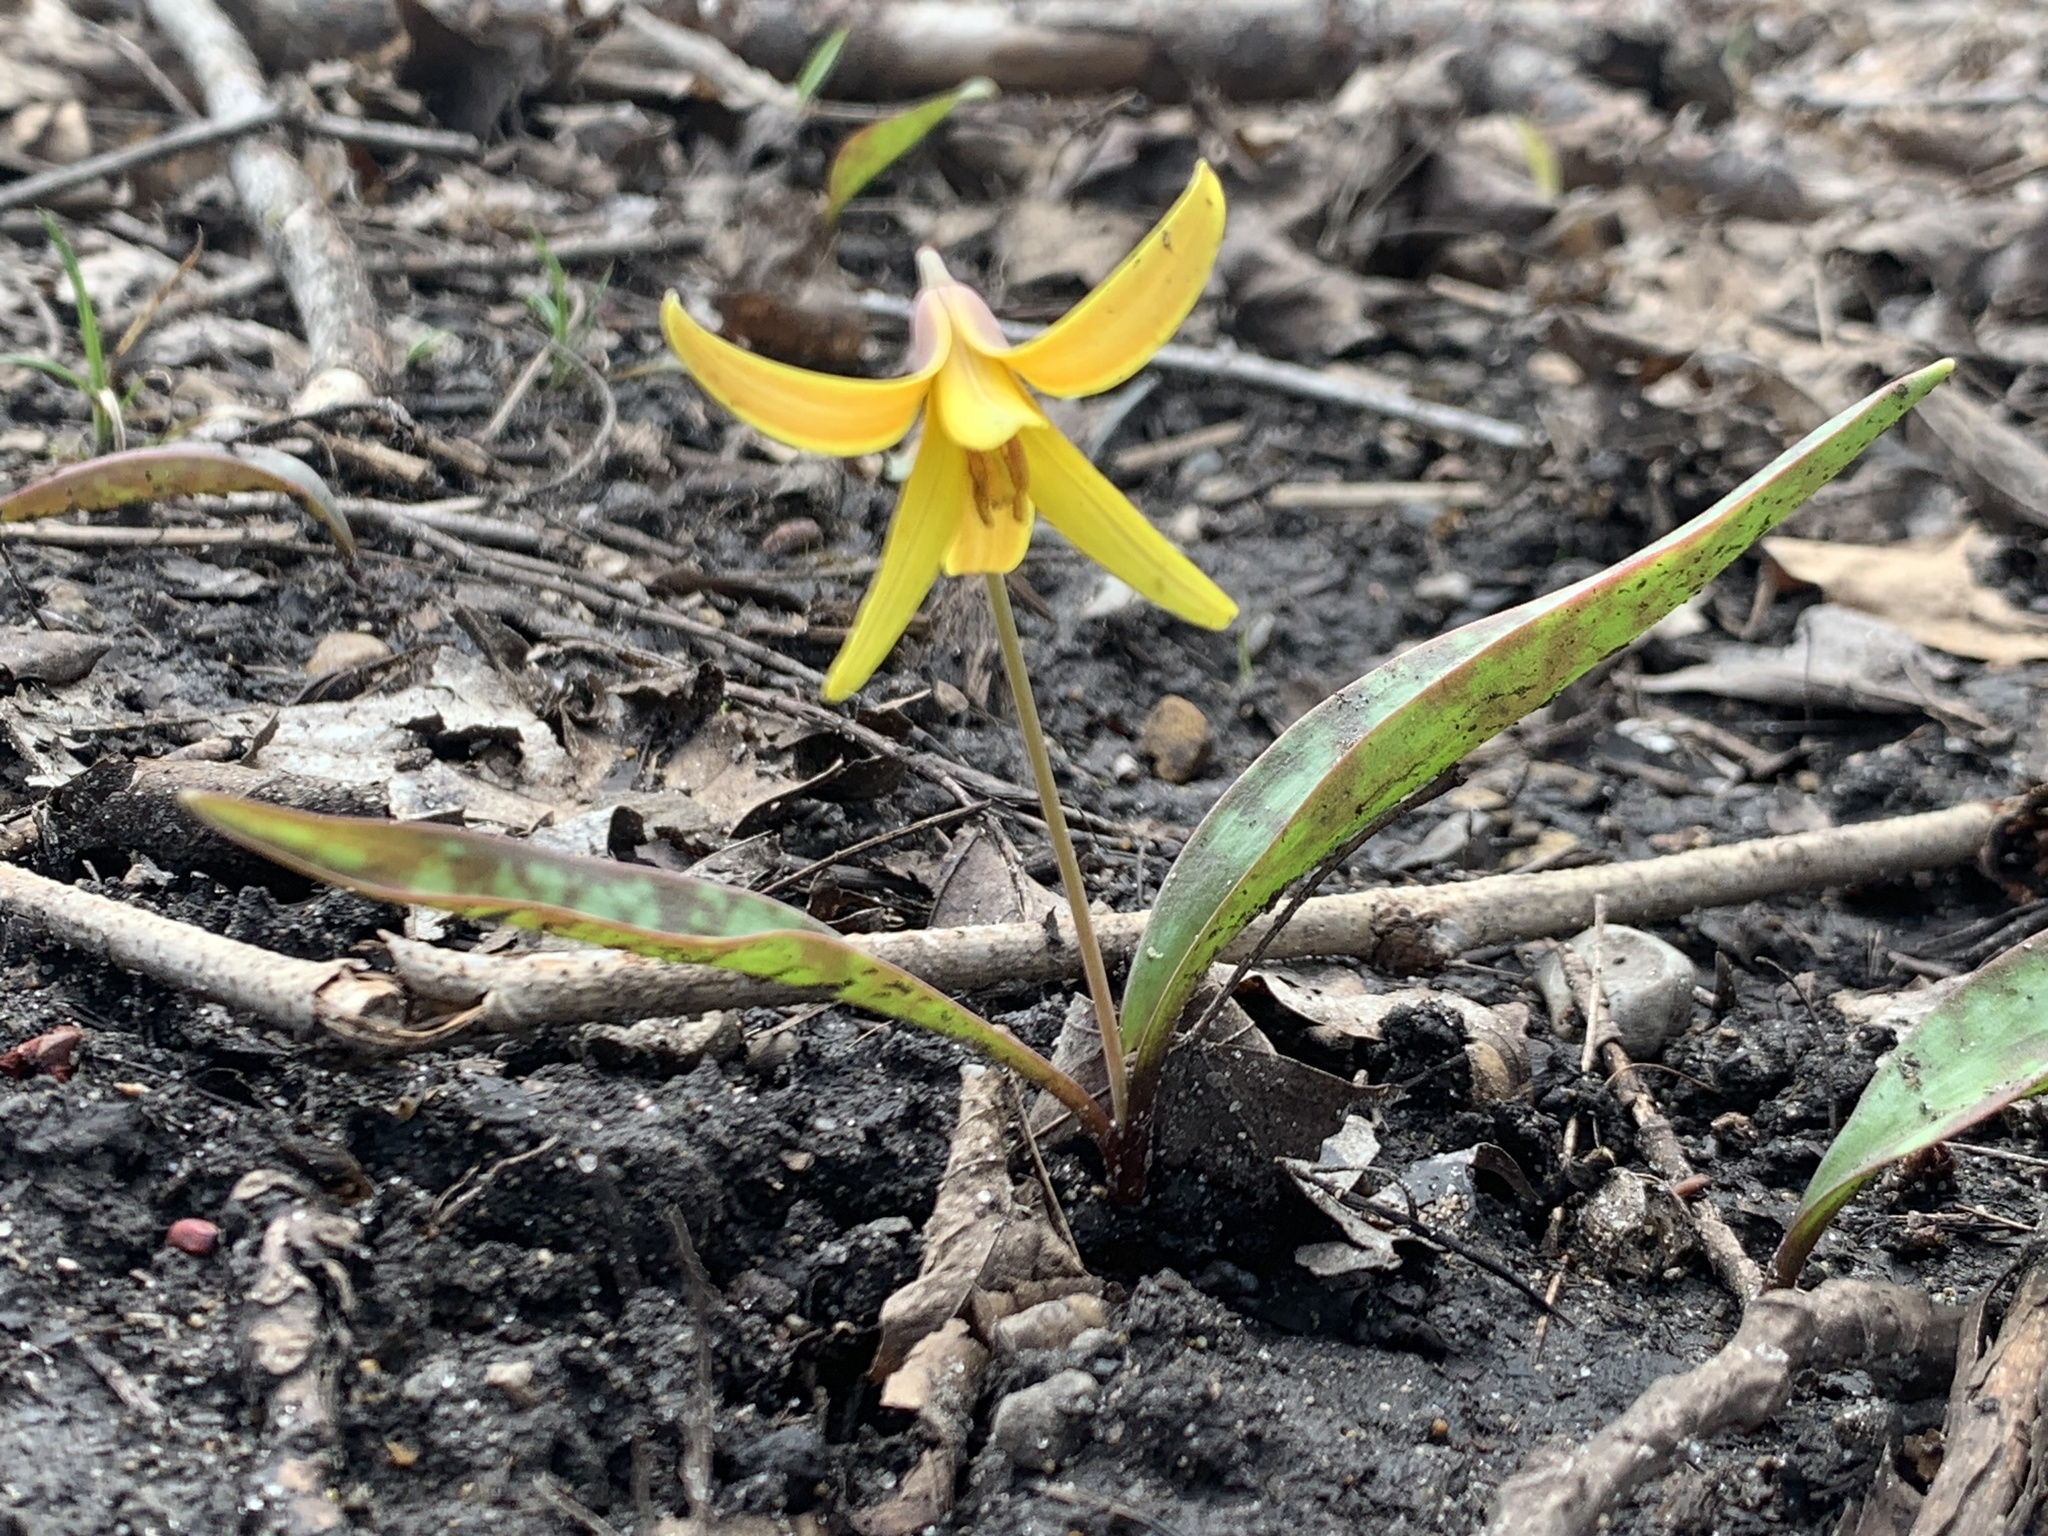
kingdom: Plantae
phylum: Tracheophyta
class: Liliopsida
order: Liliales
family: Liliaceae
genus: Erythronium
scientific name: Erythronium americanum
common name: Yellow adder's-tongue
